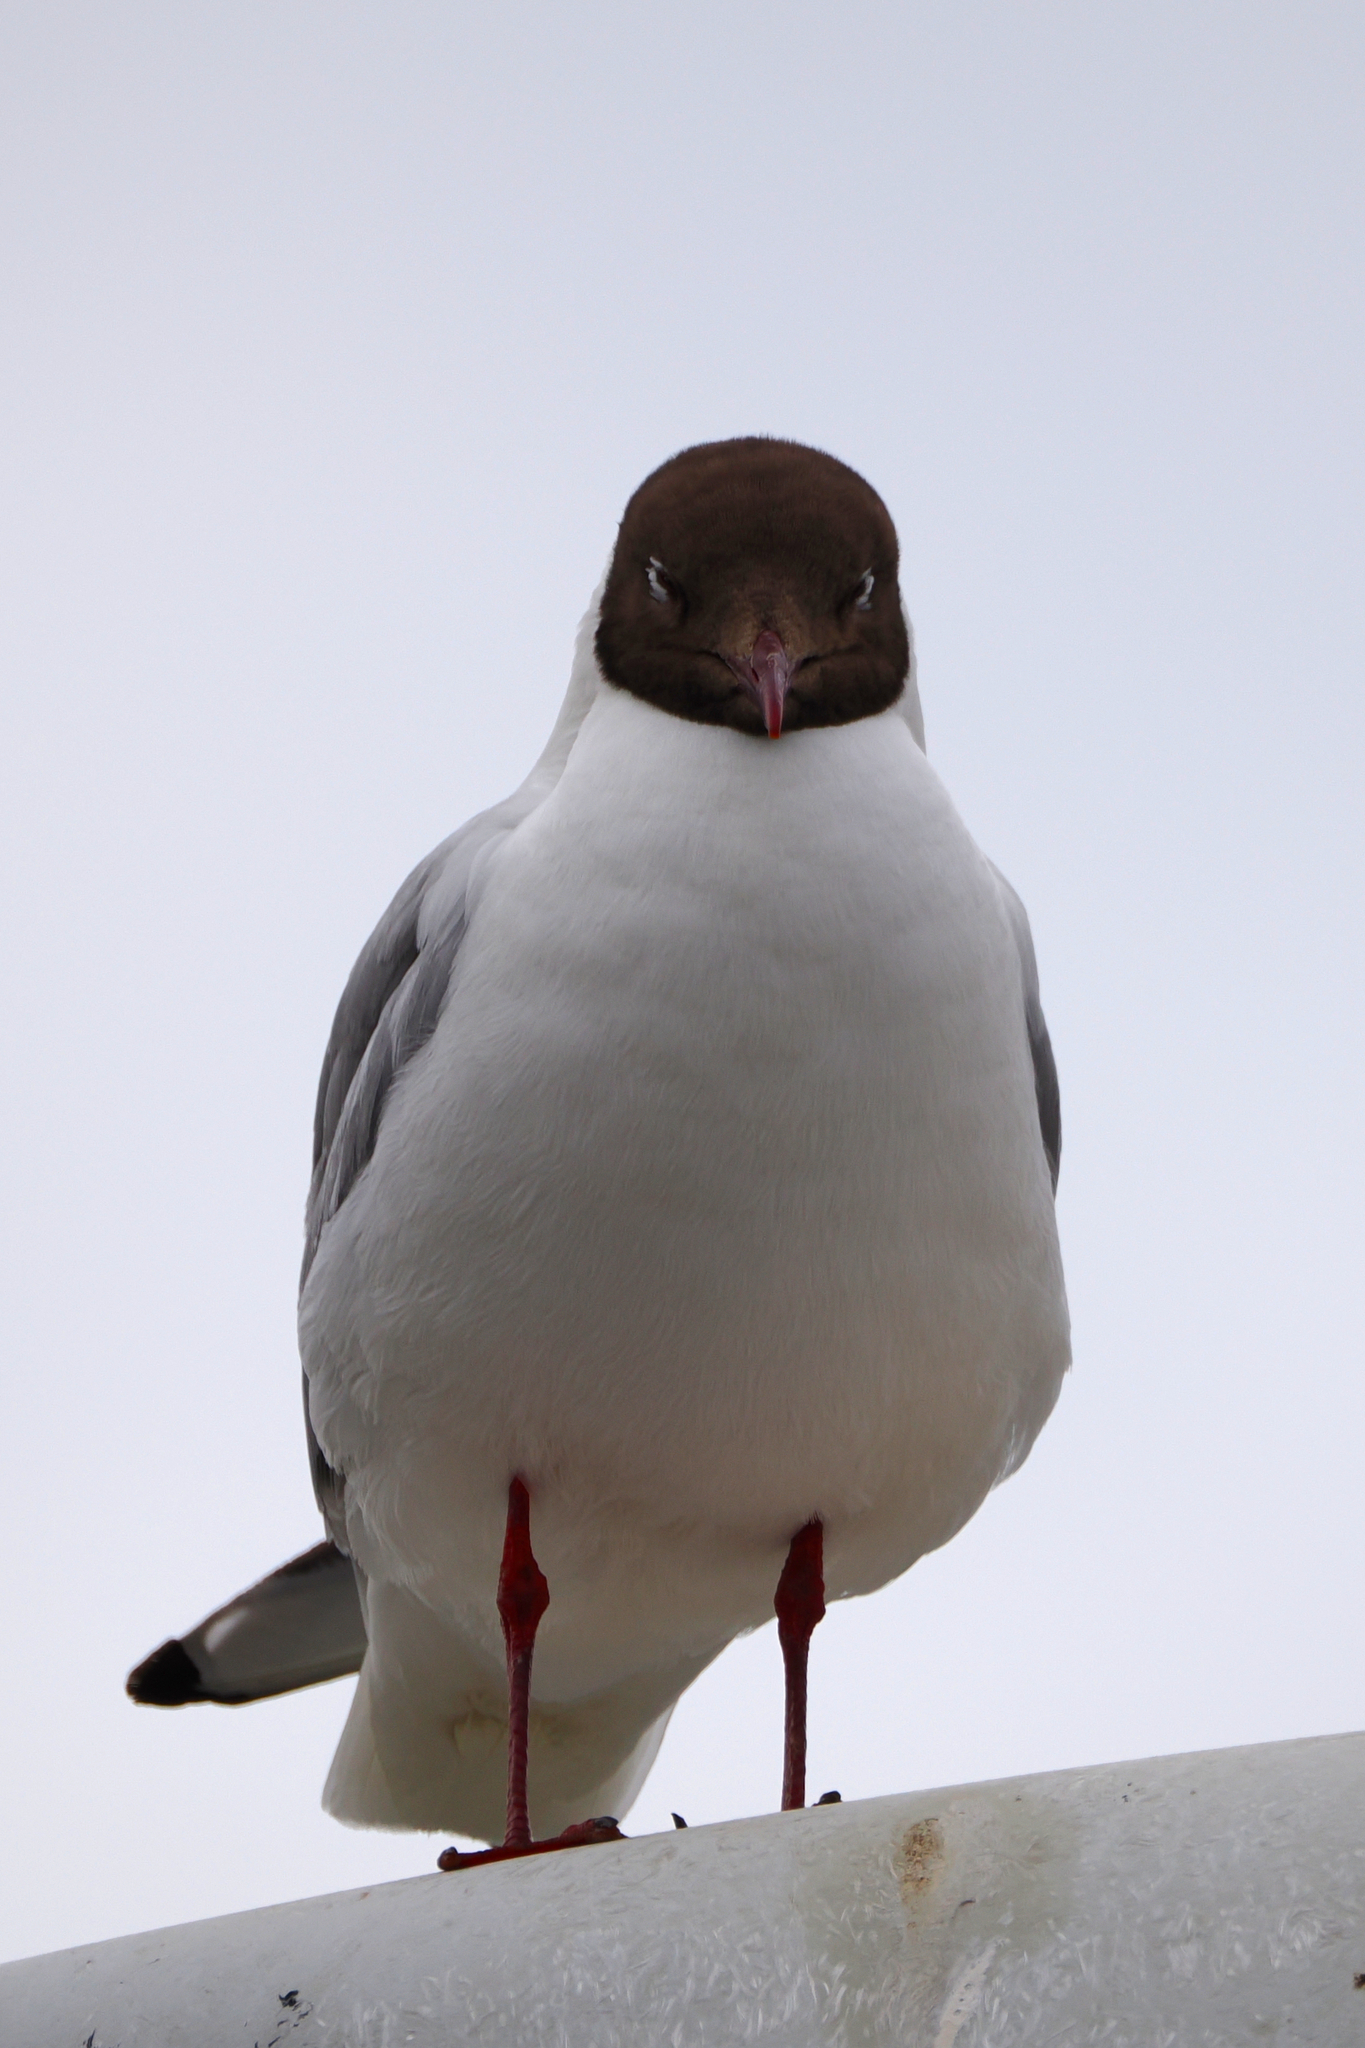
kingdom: Animalia
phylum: Chordata
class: Aves
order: Charadriiformes
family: Laridae
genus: Chroicocephalus
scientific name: Chroicocephalus ridibundus
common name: Black-headed gull
